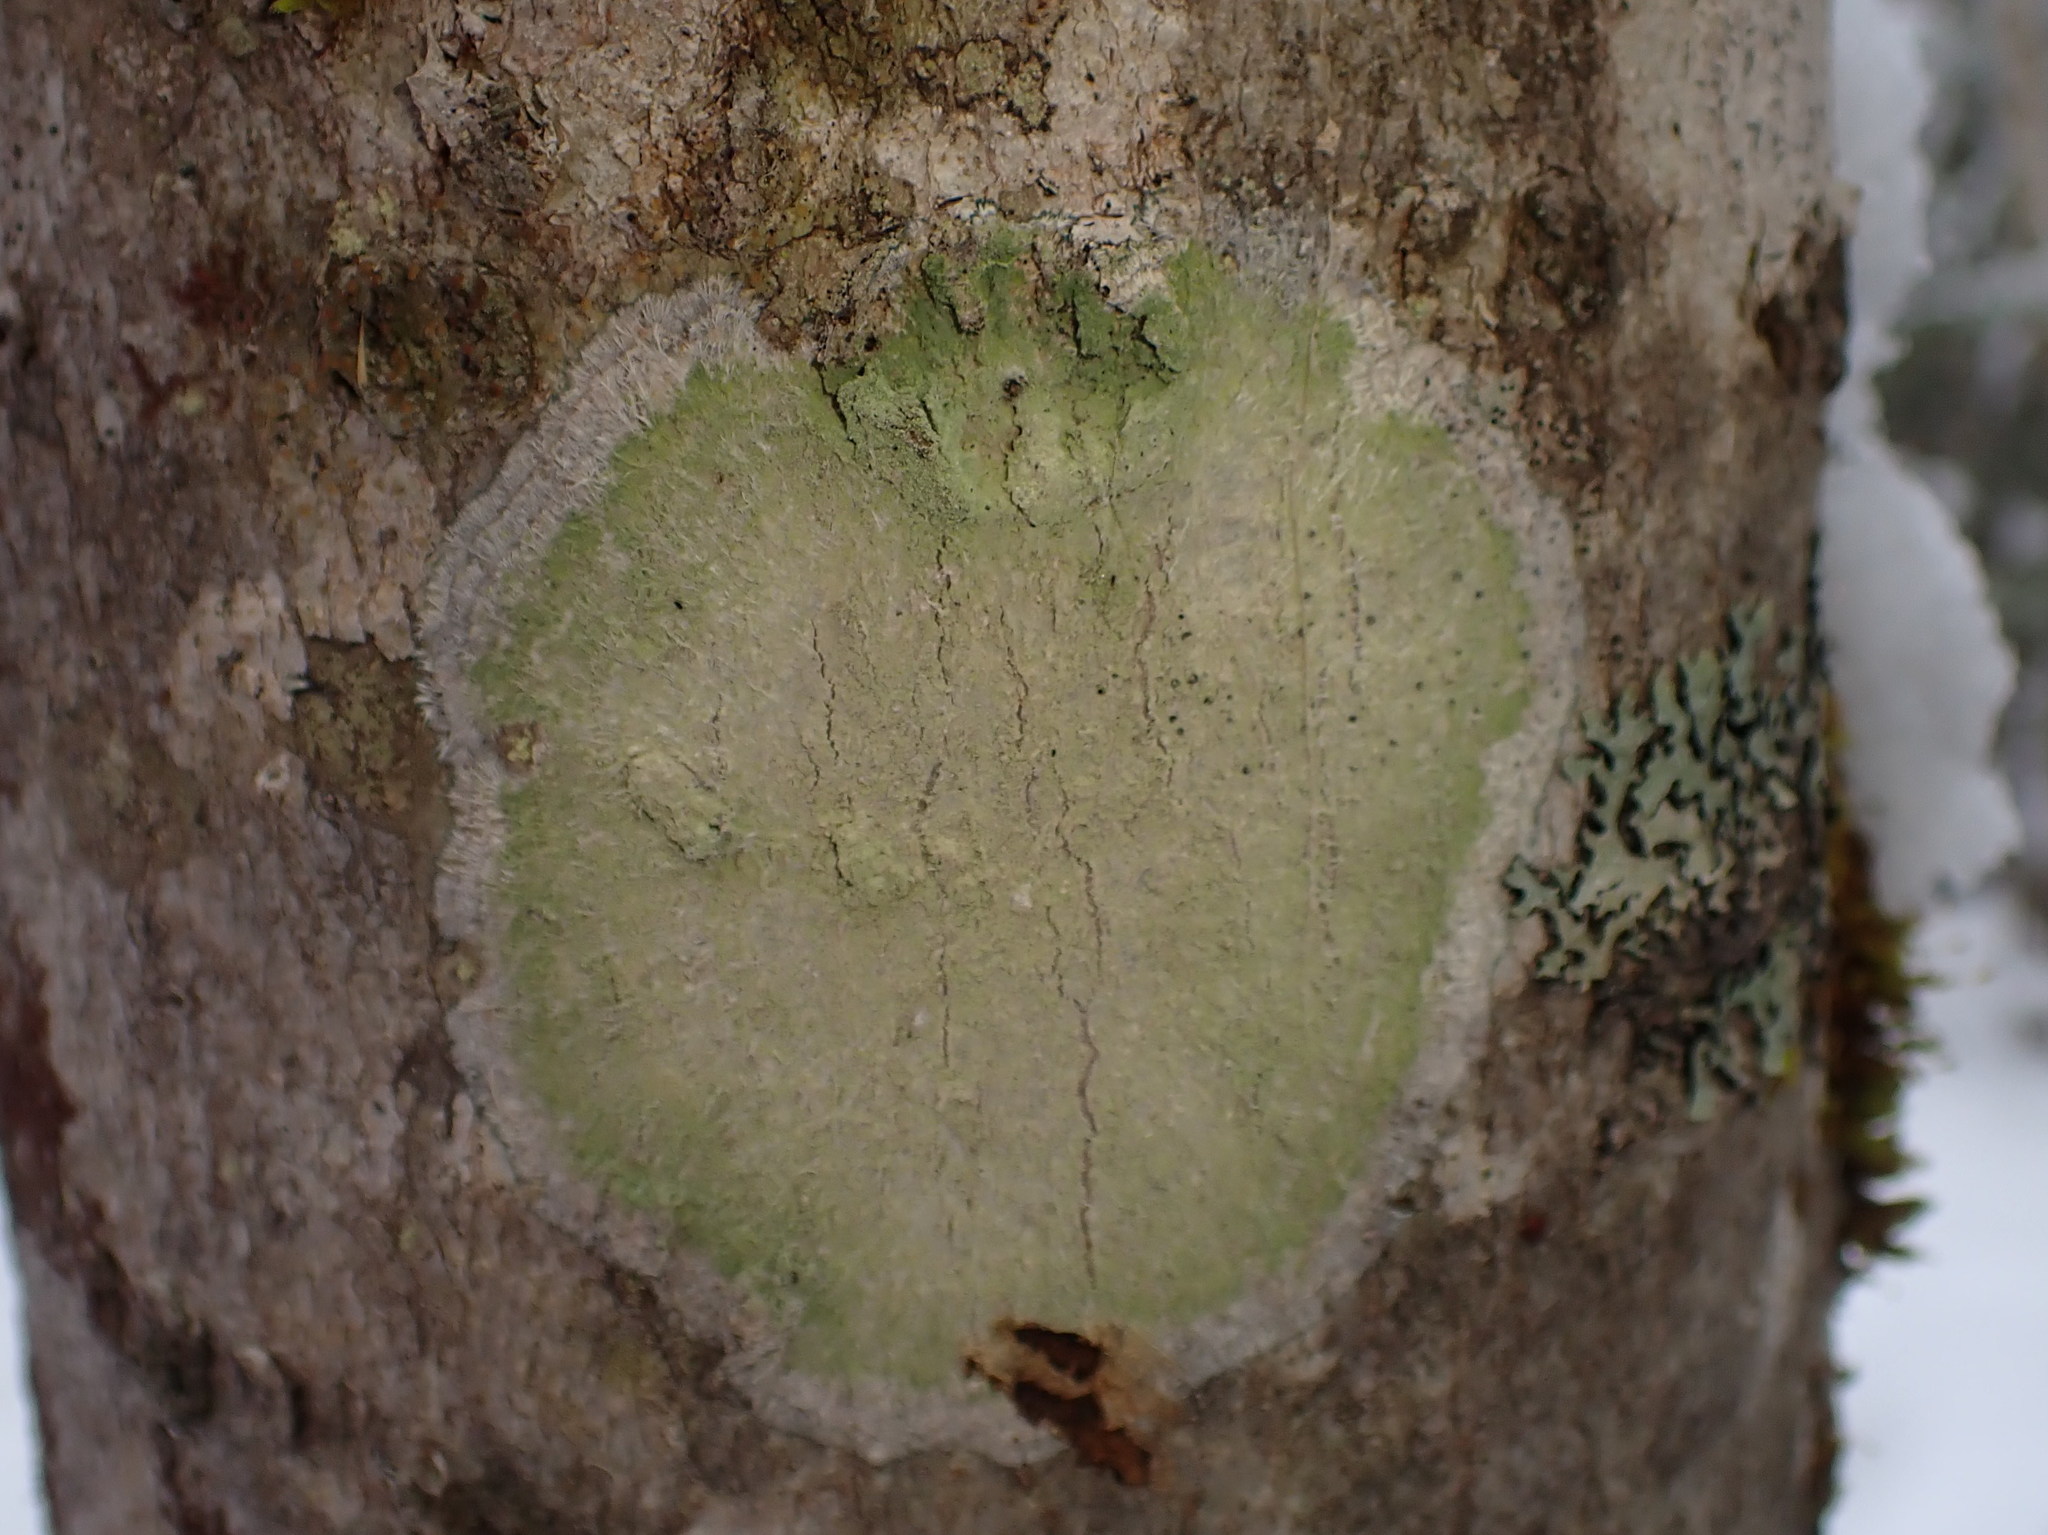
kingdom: Fungi
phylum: Ascomycota
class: Lecanoromycetes
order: Pertusariales
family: Pertusariaceae
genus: Verseghya
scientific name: Verseghya thysanophora
